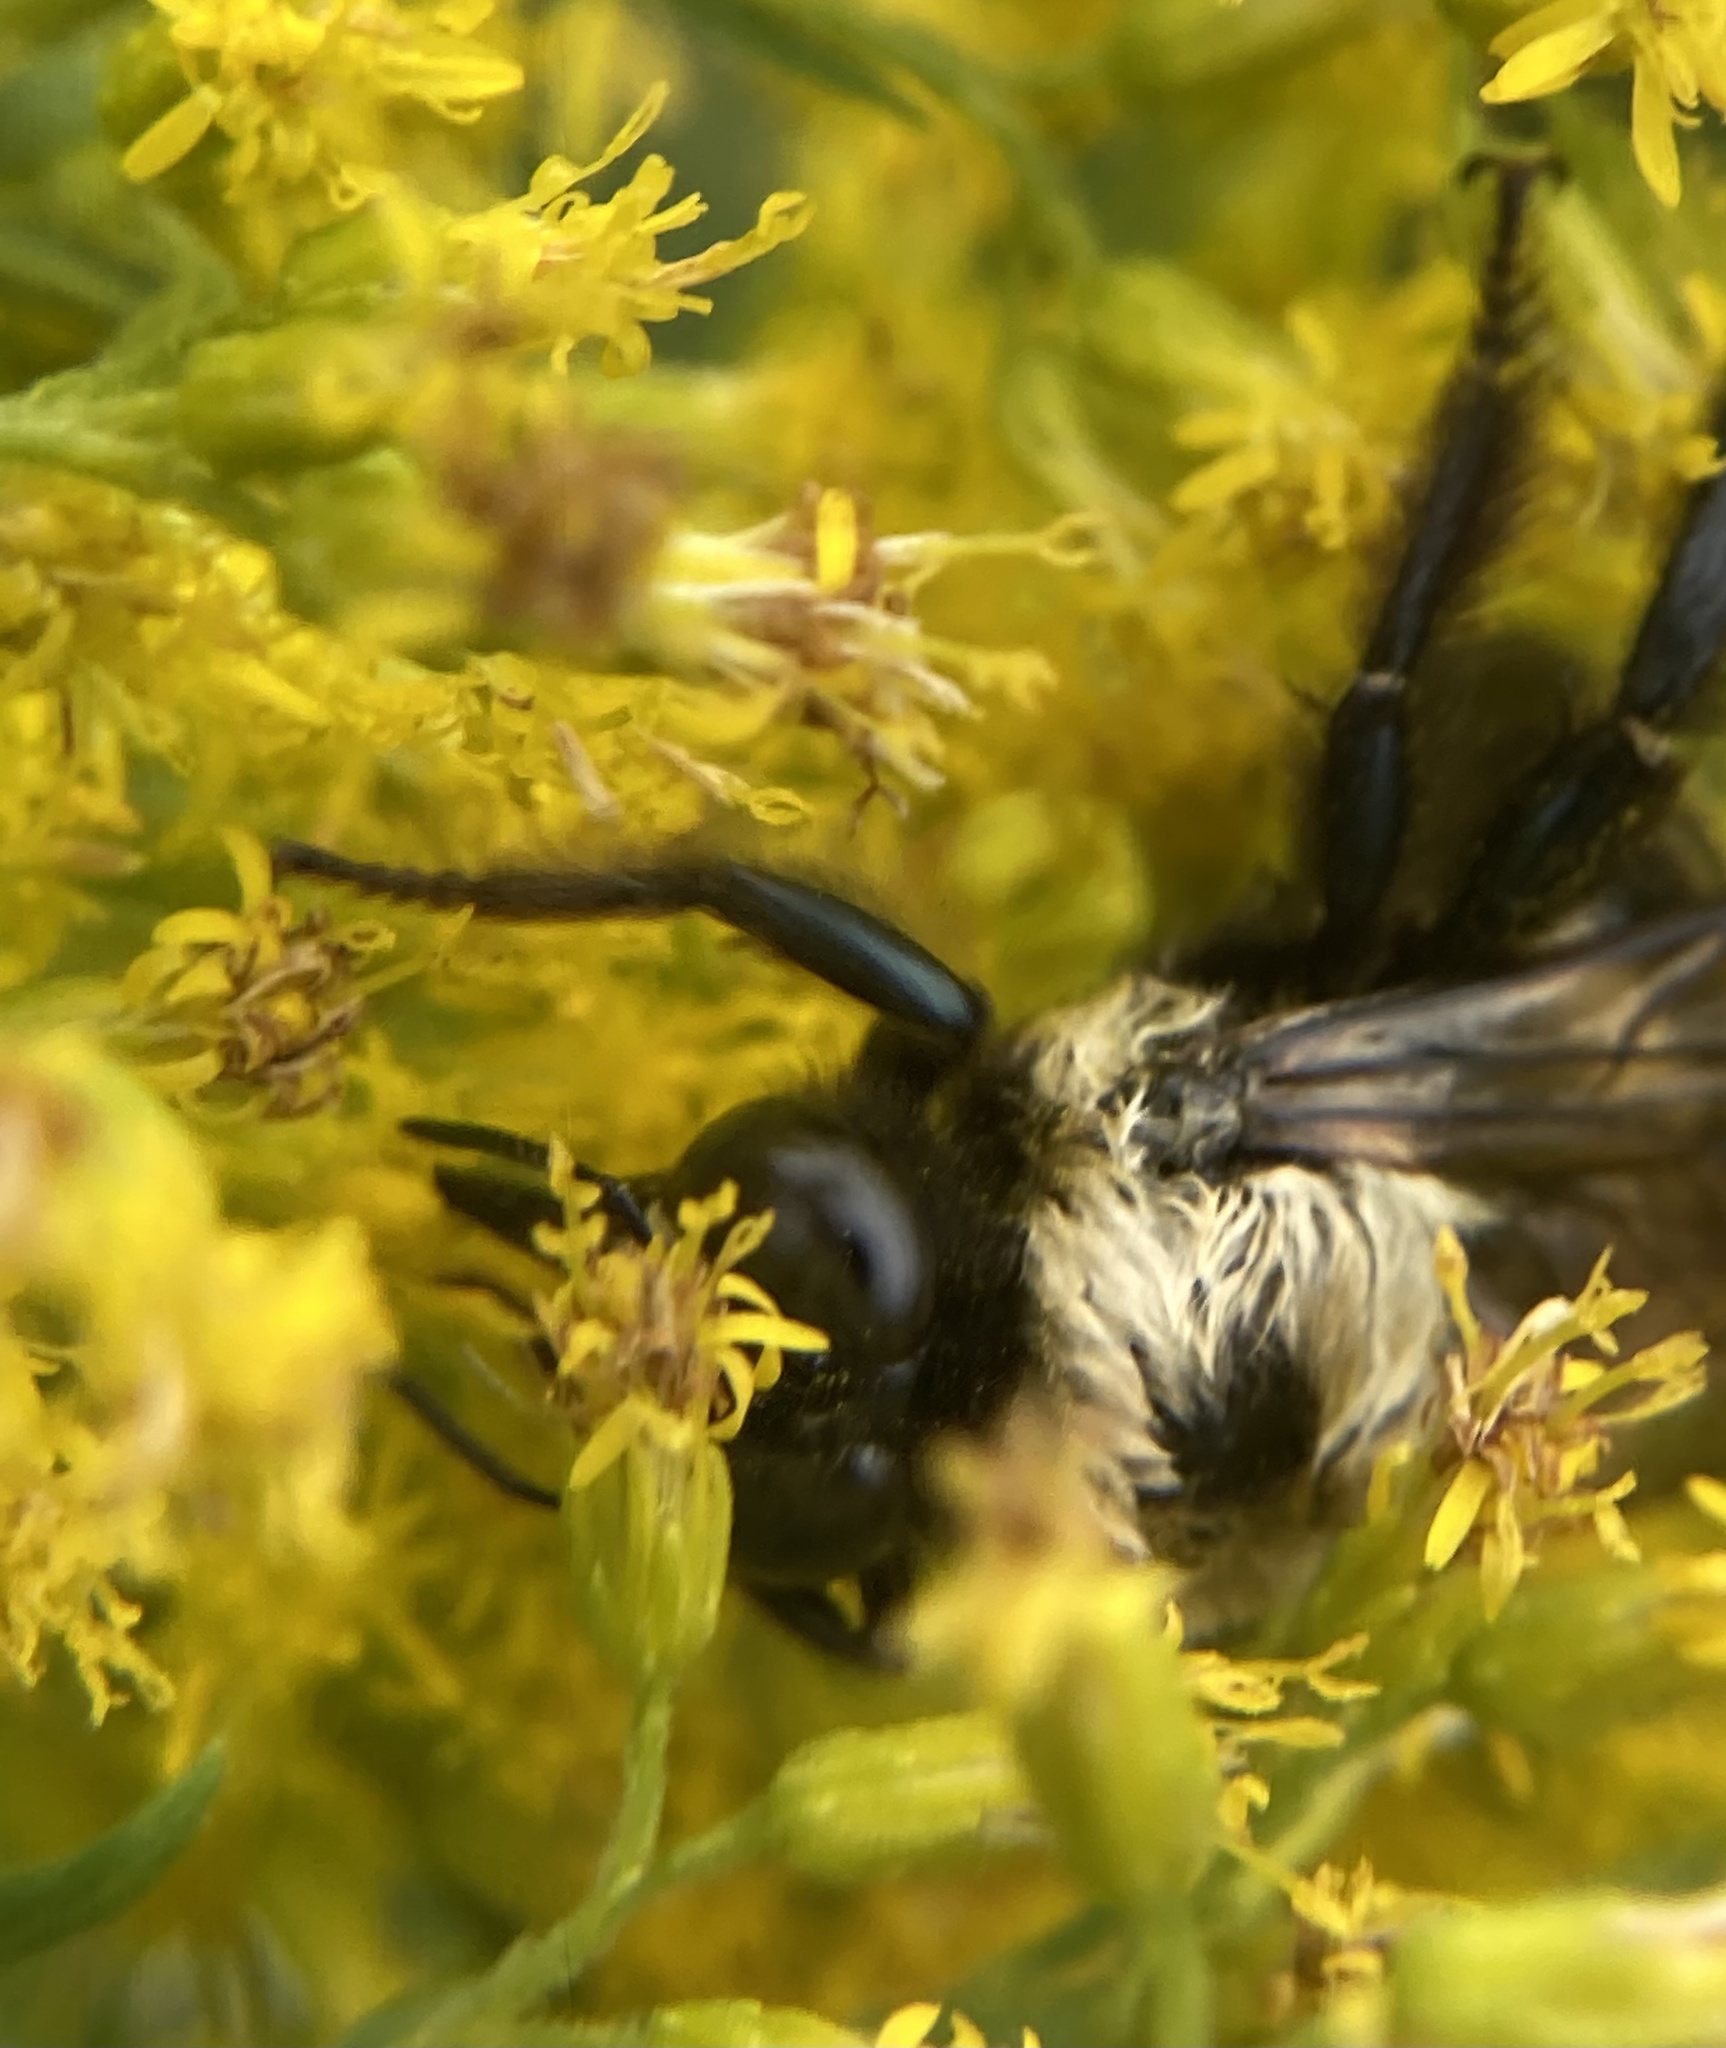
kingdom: Animalia
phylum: Arthropoda
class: Insecta
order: Hymenoptera
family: Apidae
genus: Xylocopa
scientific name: Xylocopa virginica
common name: Carpenter bee
